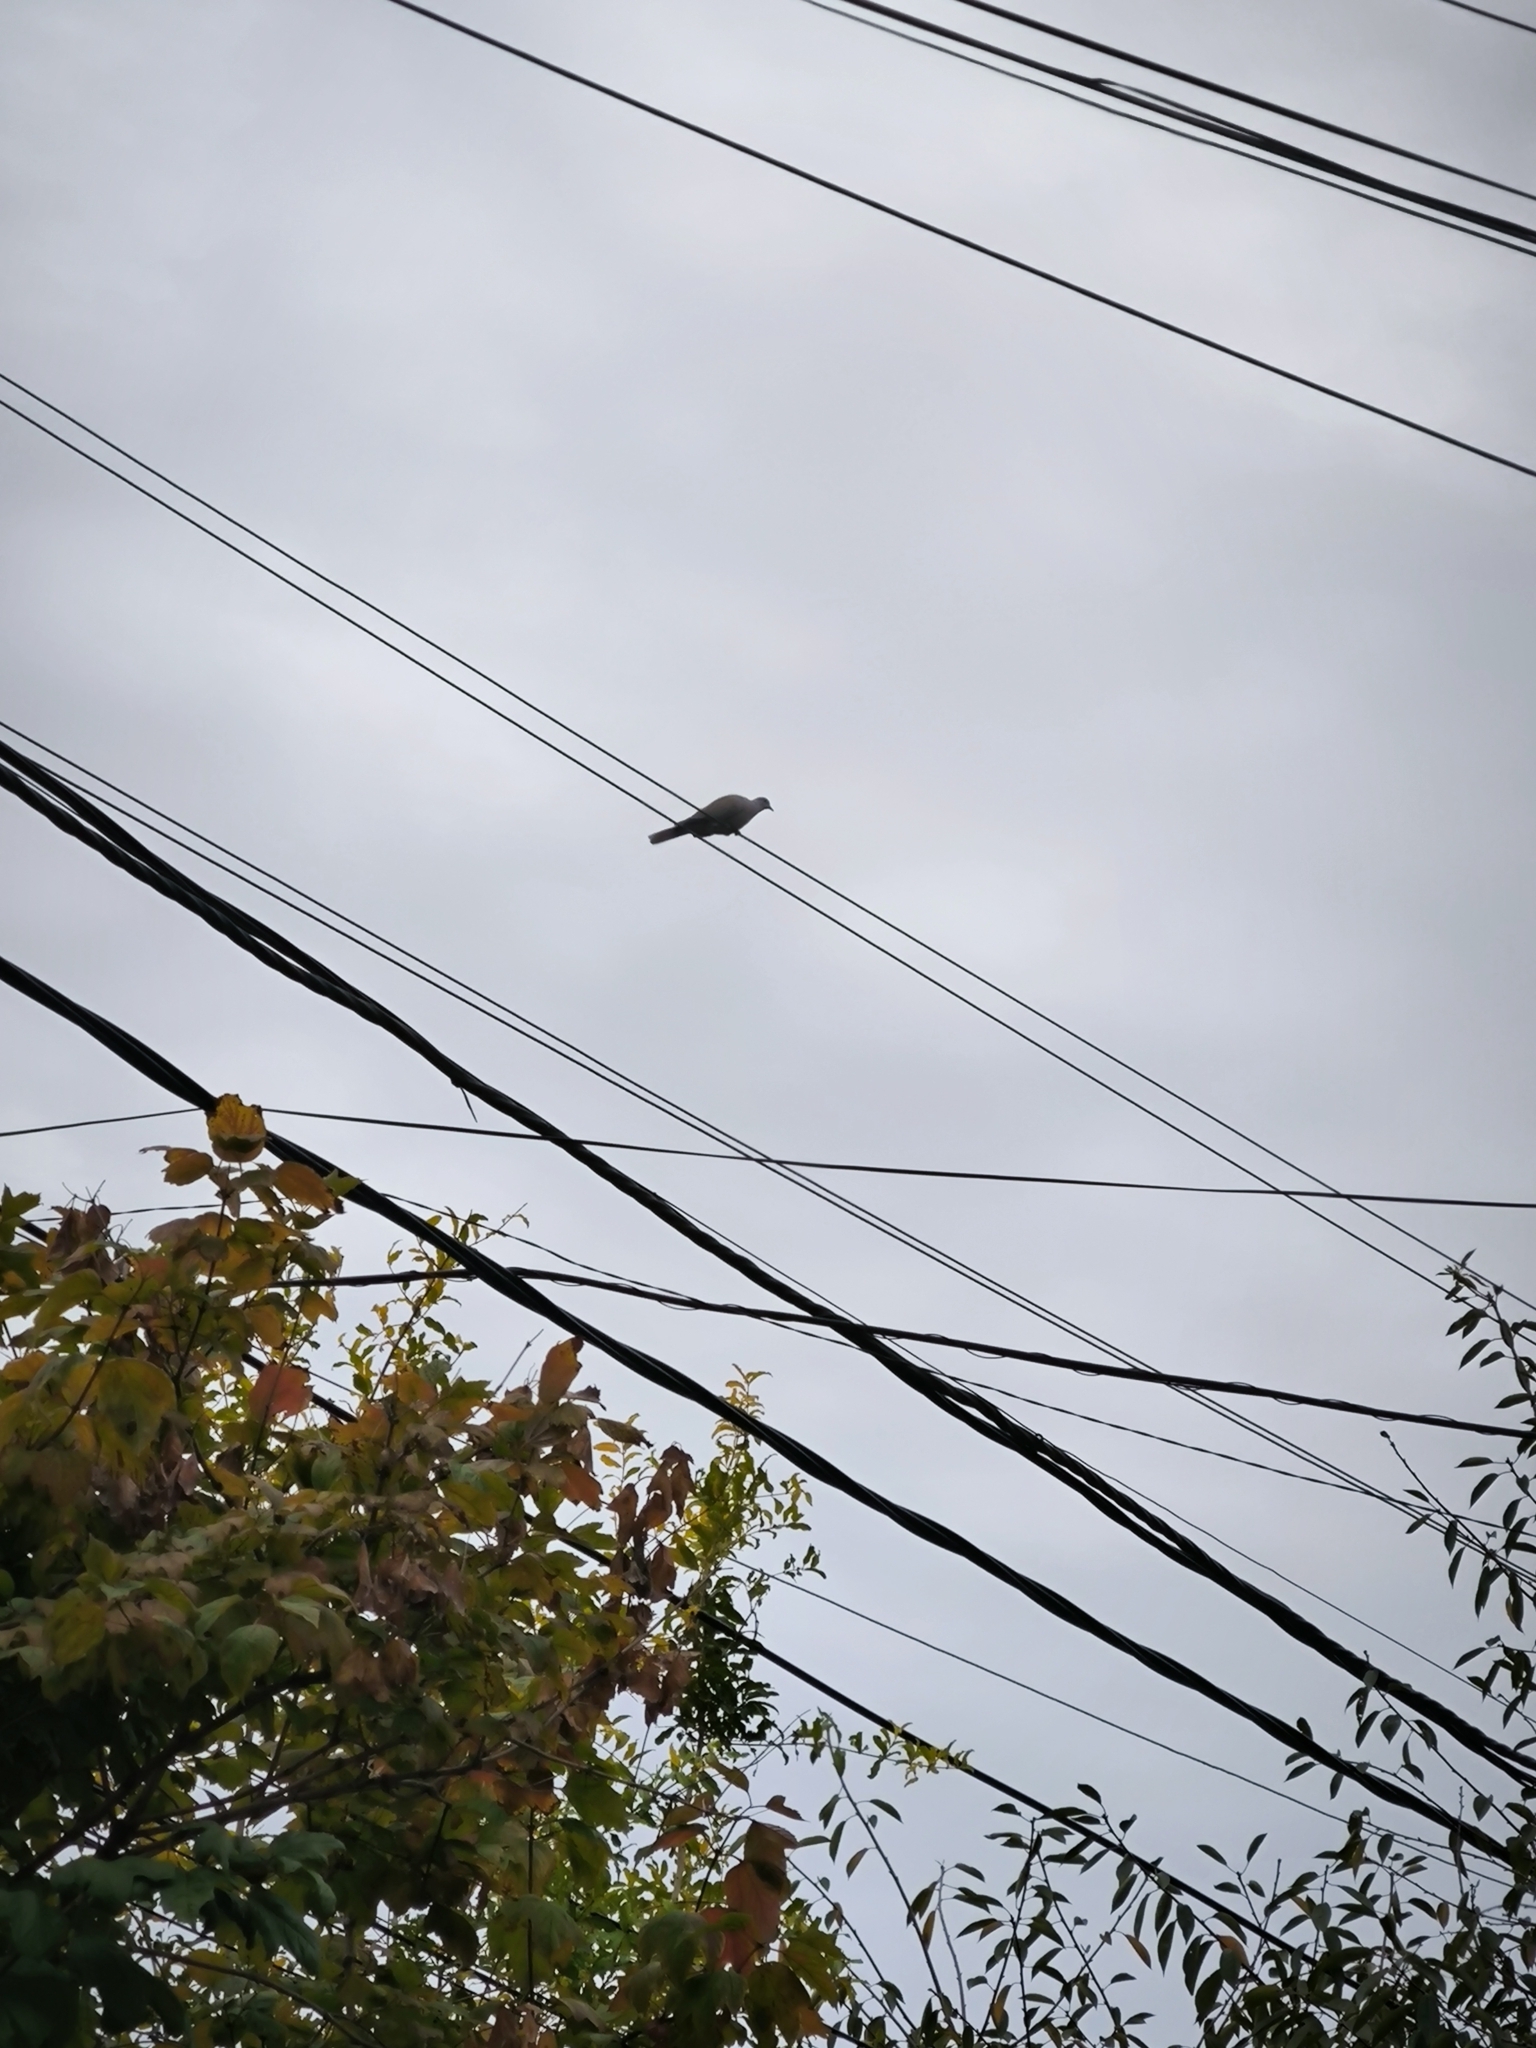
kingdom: Animalia
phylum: Chordata
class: Aves
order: Columbiformes
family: Columbidae
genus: Streptopelia
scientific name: Streptopelia decaocto
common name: Eurasian collared dove
